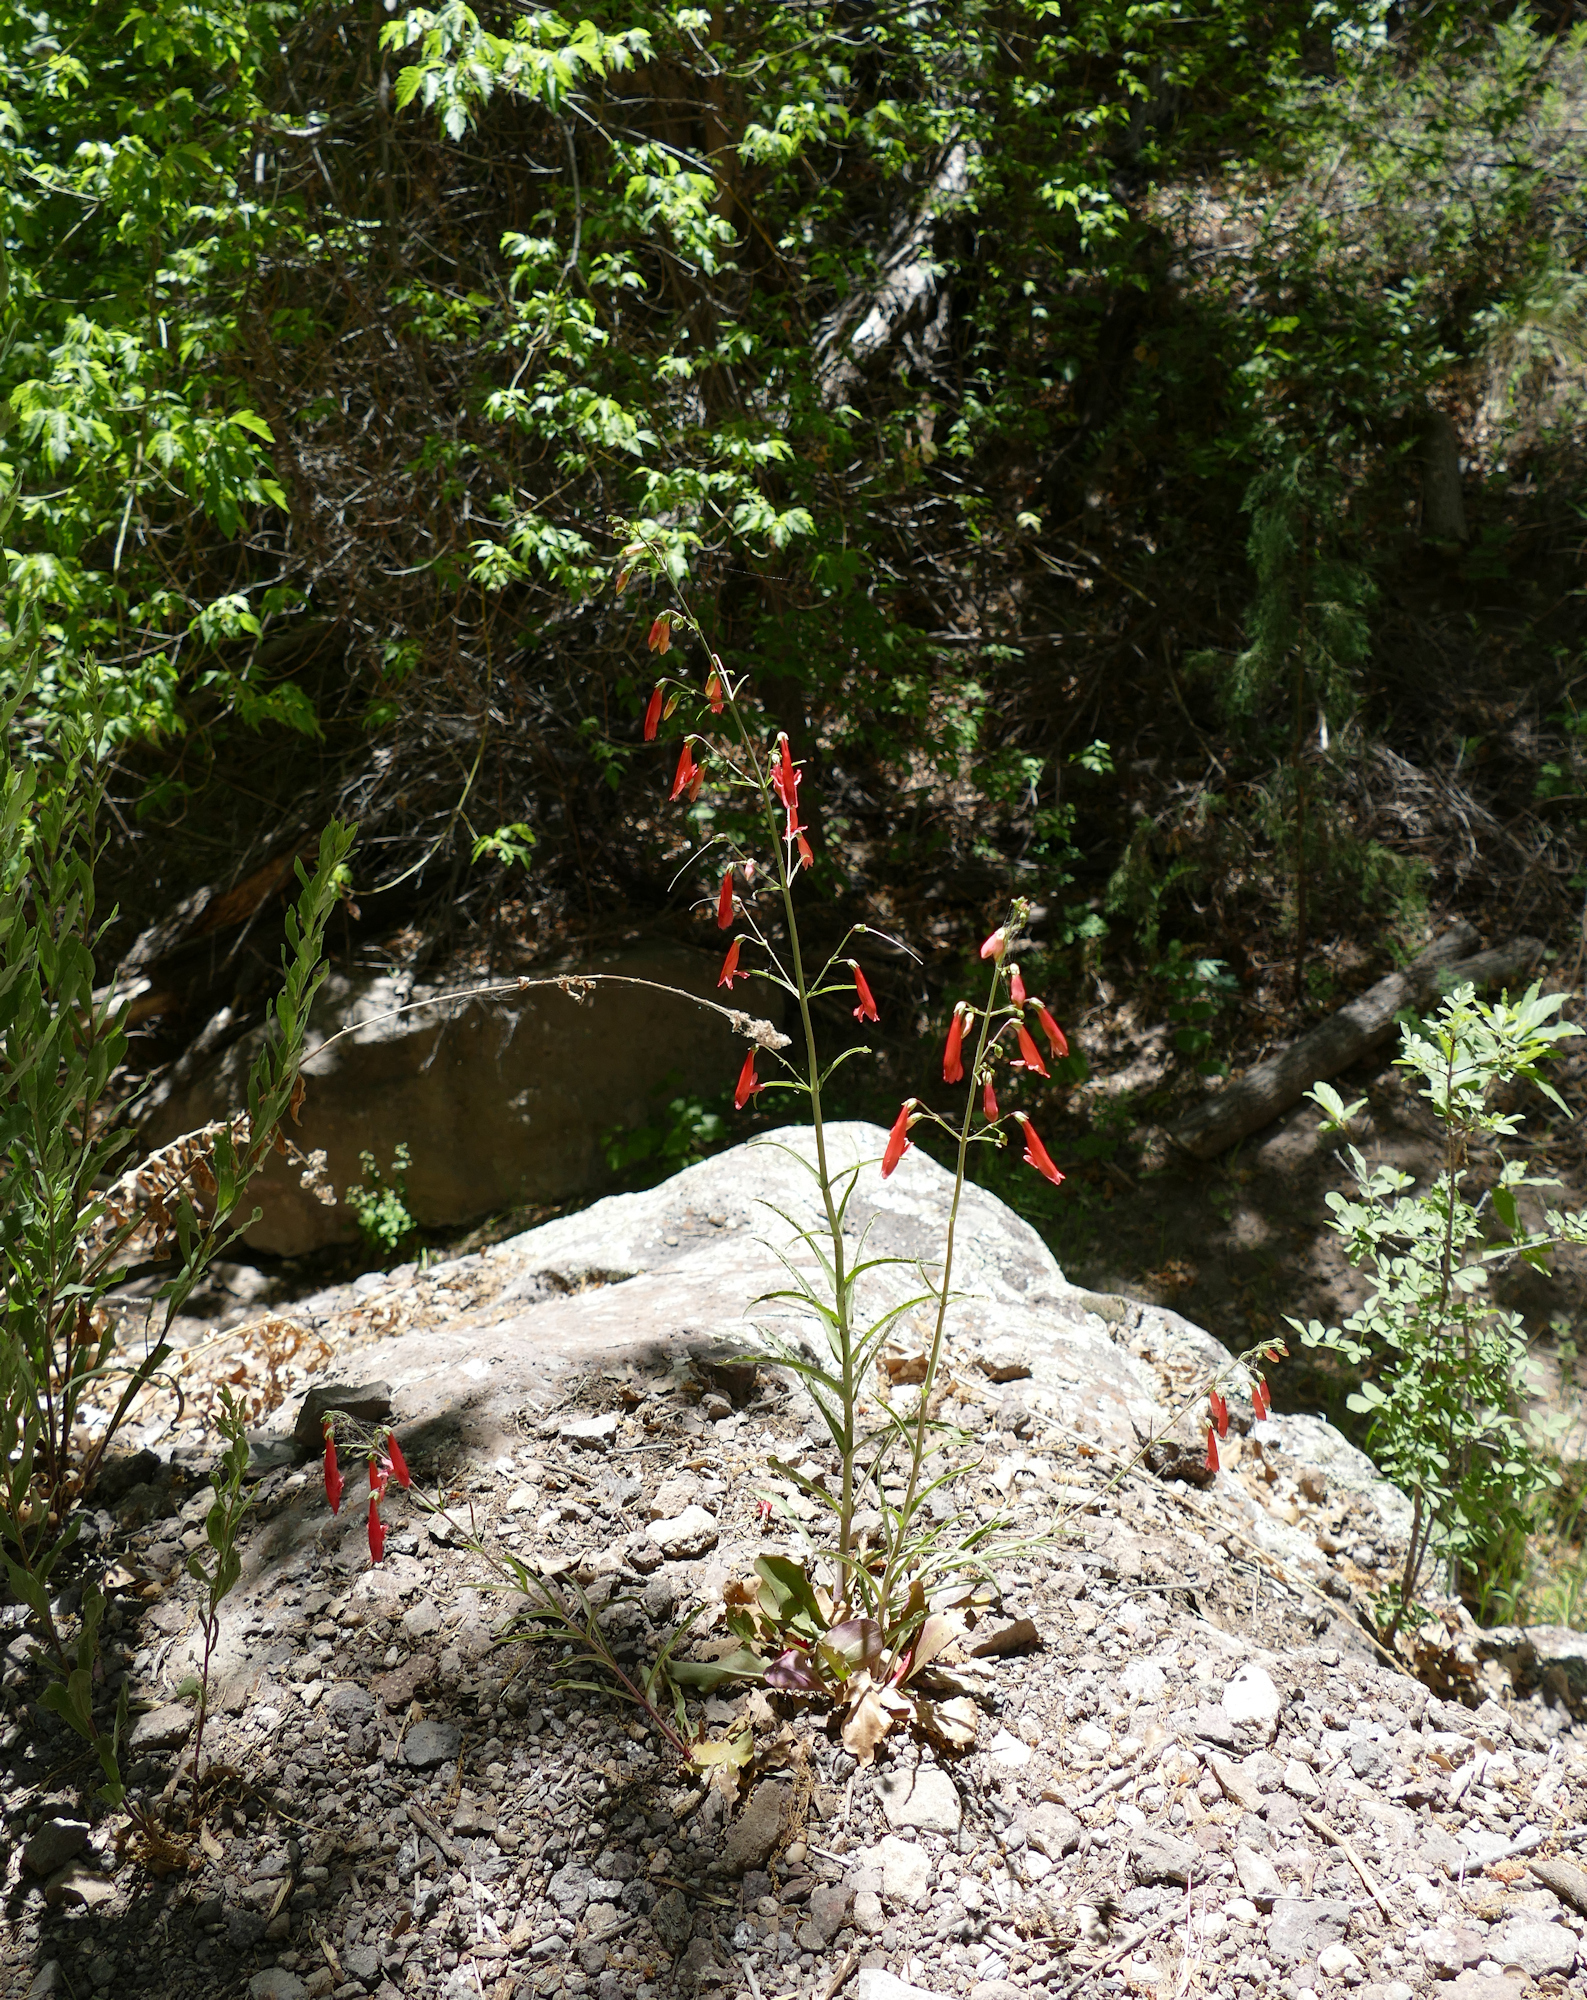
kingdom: Plantae
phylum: Tracheophyta
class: Magnoliopsida
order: Lamiales
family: Plantaginaceae
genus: Penstemon
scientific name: Penstemon barbatus
